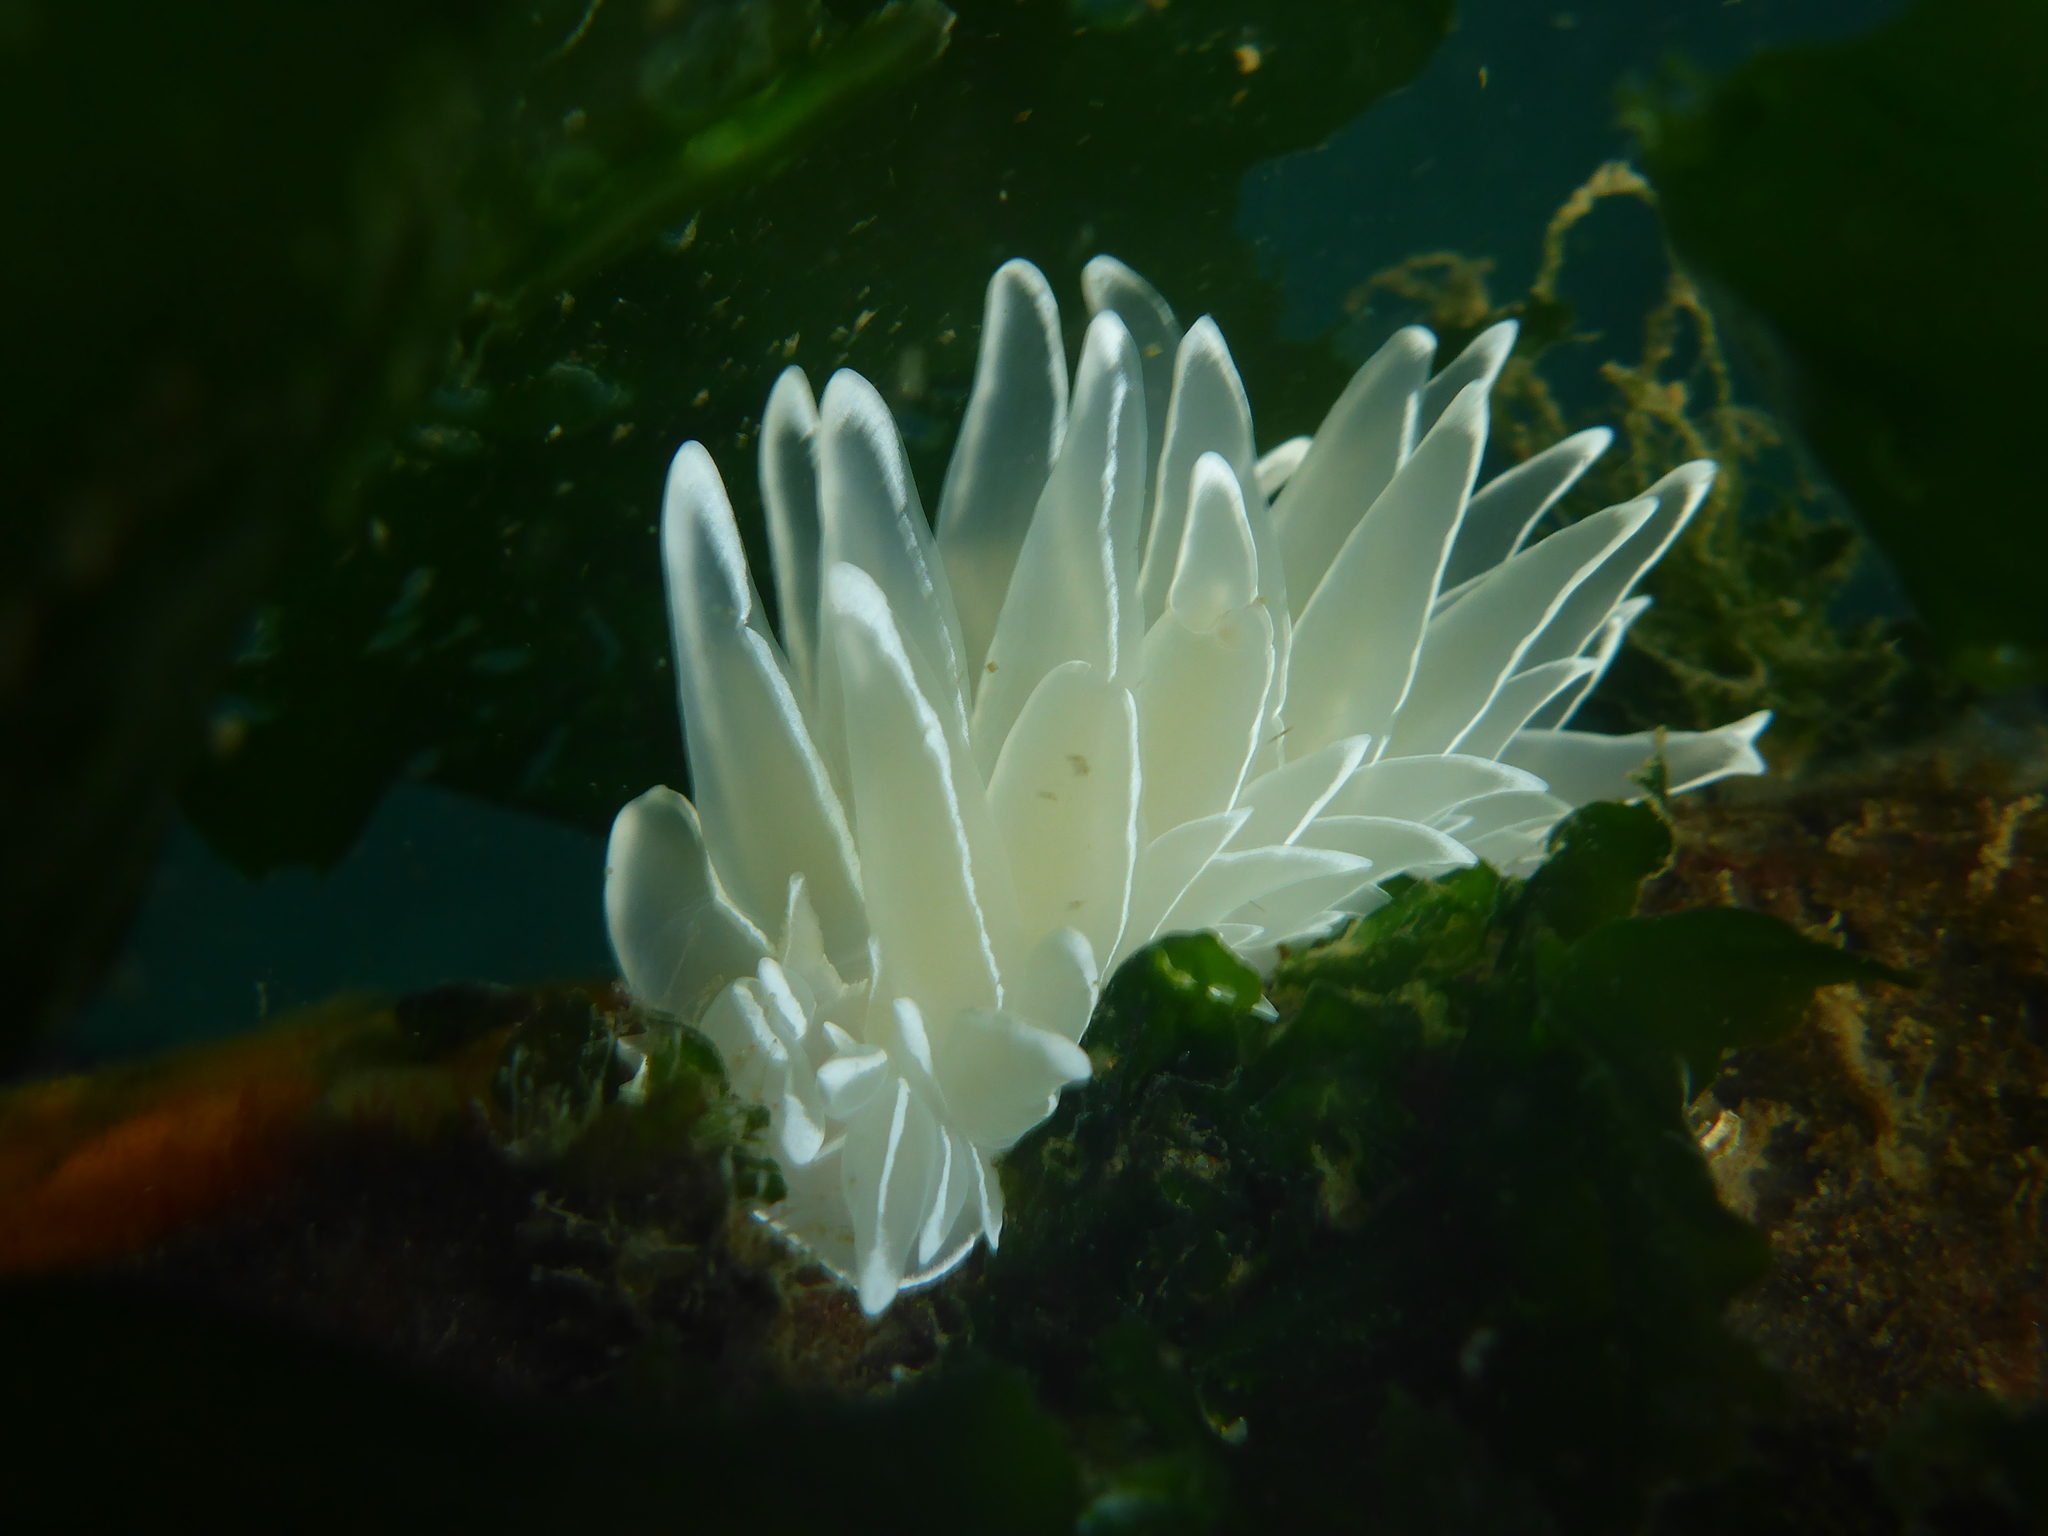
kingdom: Animalia
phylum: Mollusca
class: Gastropoda
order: Nudibranchia
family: Dironidae
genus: Dirona
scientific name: Dirona albolineata
